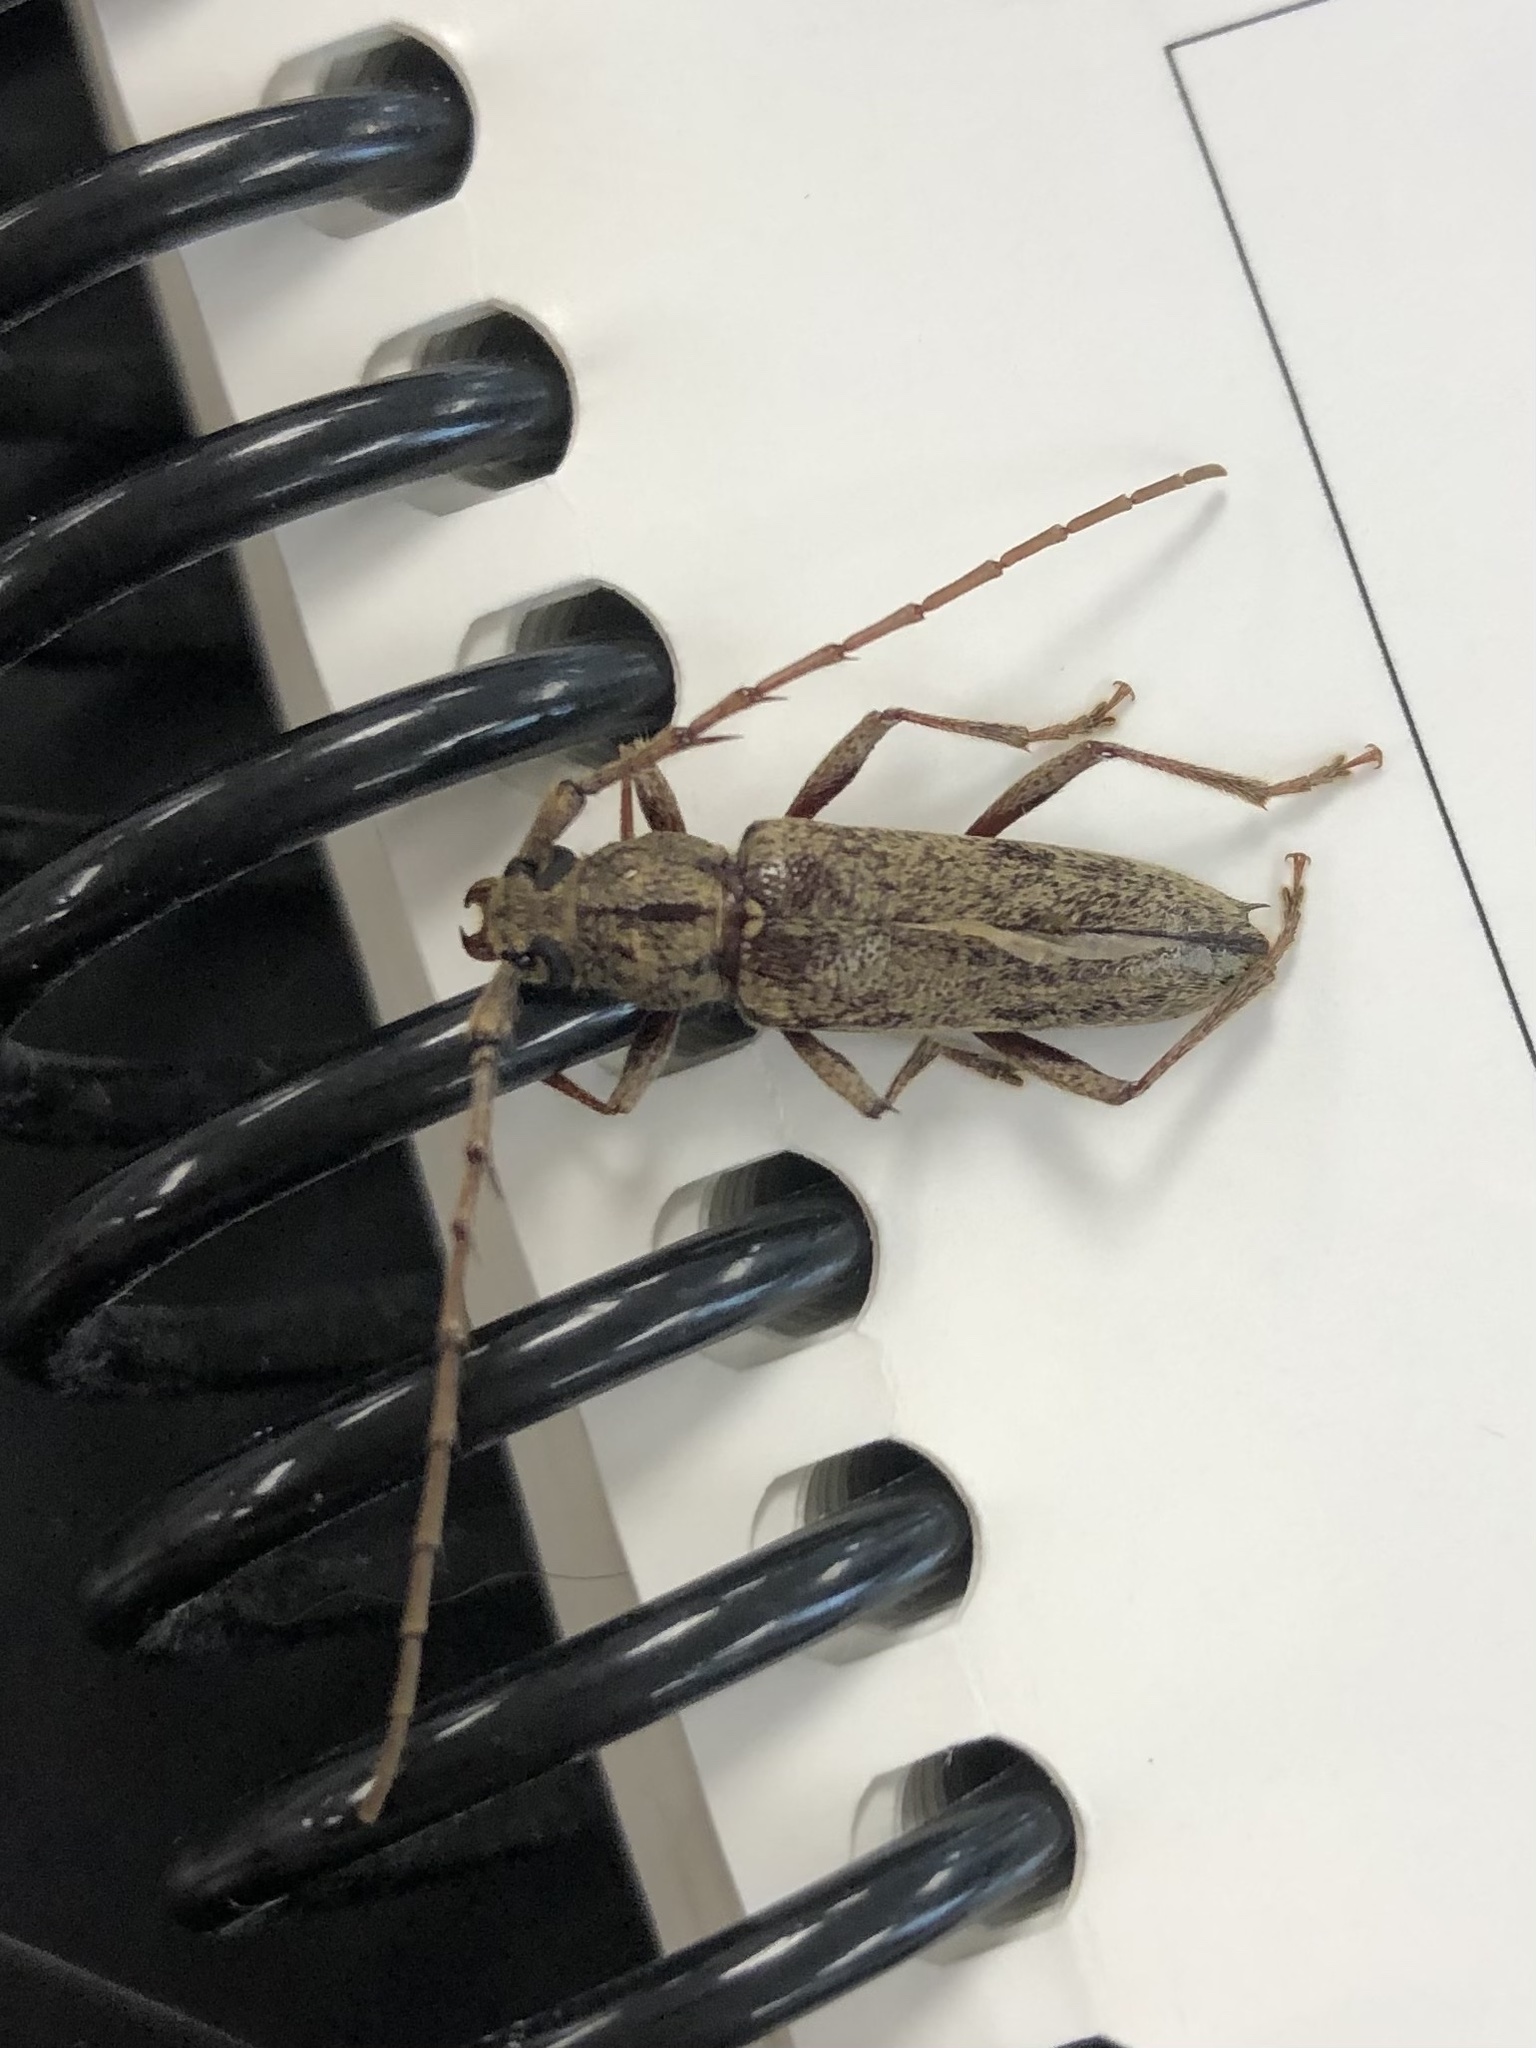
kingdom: Animalia
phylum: Arthropoda
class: Insecta
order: Coleoptera
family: Cerambycidae
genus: Elaphidion
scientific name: Elaphidion mucronatum
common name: Spined oak borer
